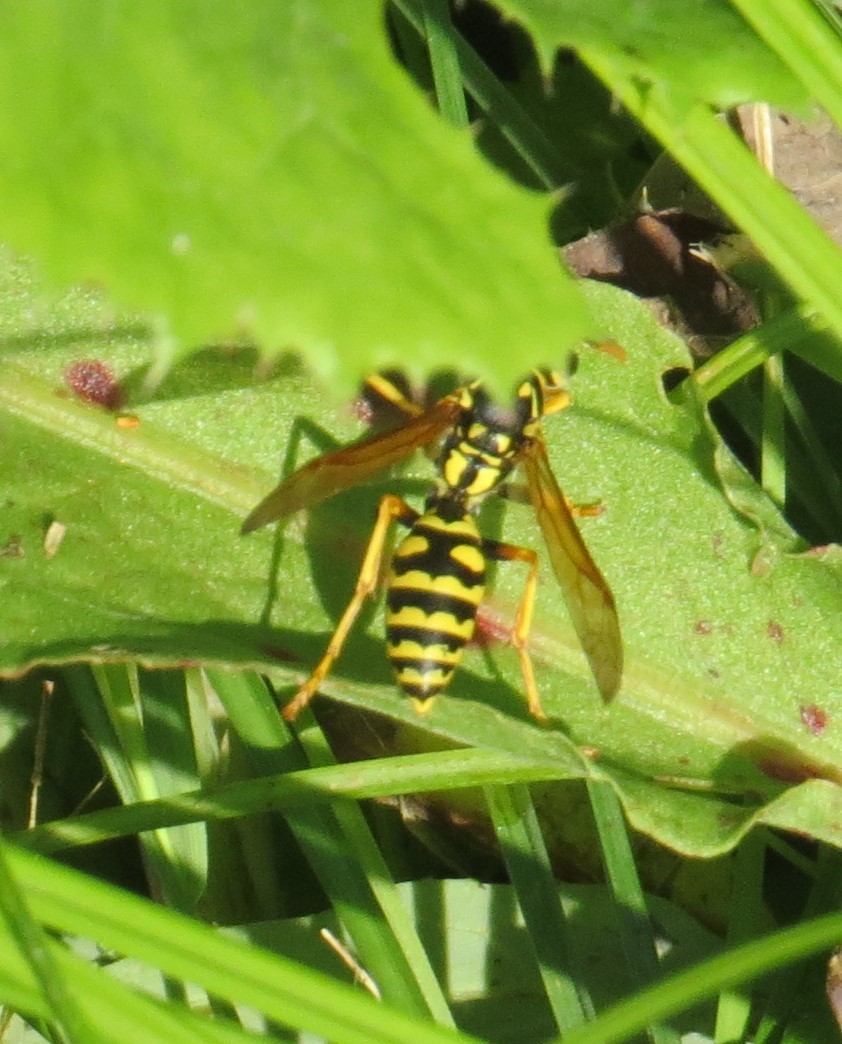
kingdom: Animalia
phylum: Arthropoda
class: Insecta
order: Hymenoptera
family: Eumenidae
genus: Polistes
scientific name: Polistes dominula
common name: Paper wasp
